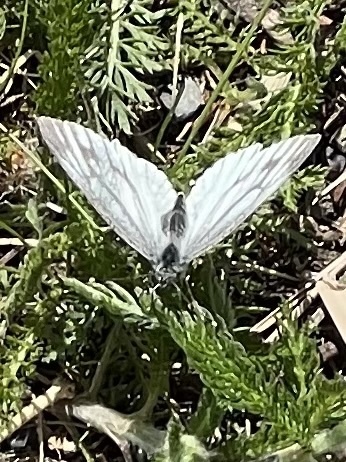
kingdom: Animalia
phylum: Arthropoda
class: Insecta
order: Lepidoptera
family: Pieridae
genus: Pieris
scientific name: Pieris napi
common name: Green-veined white
